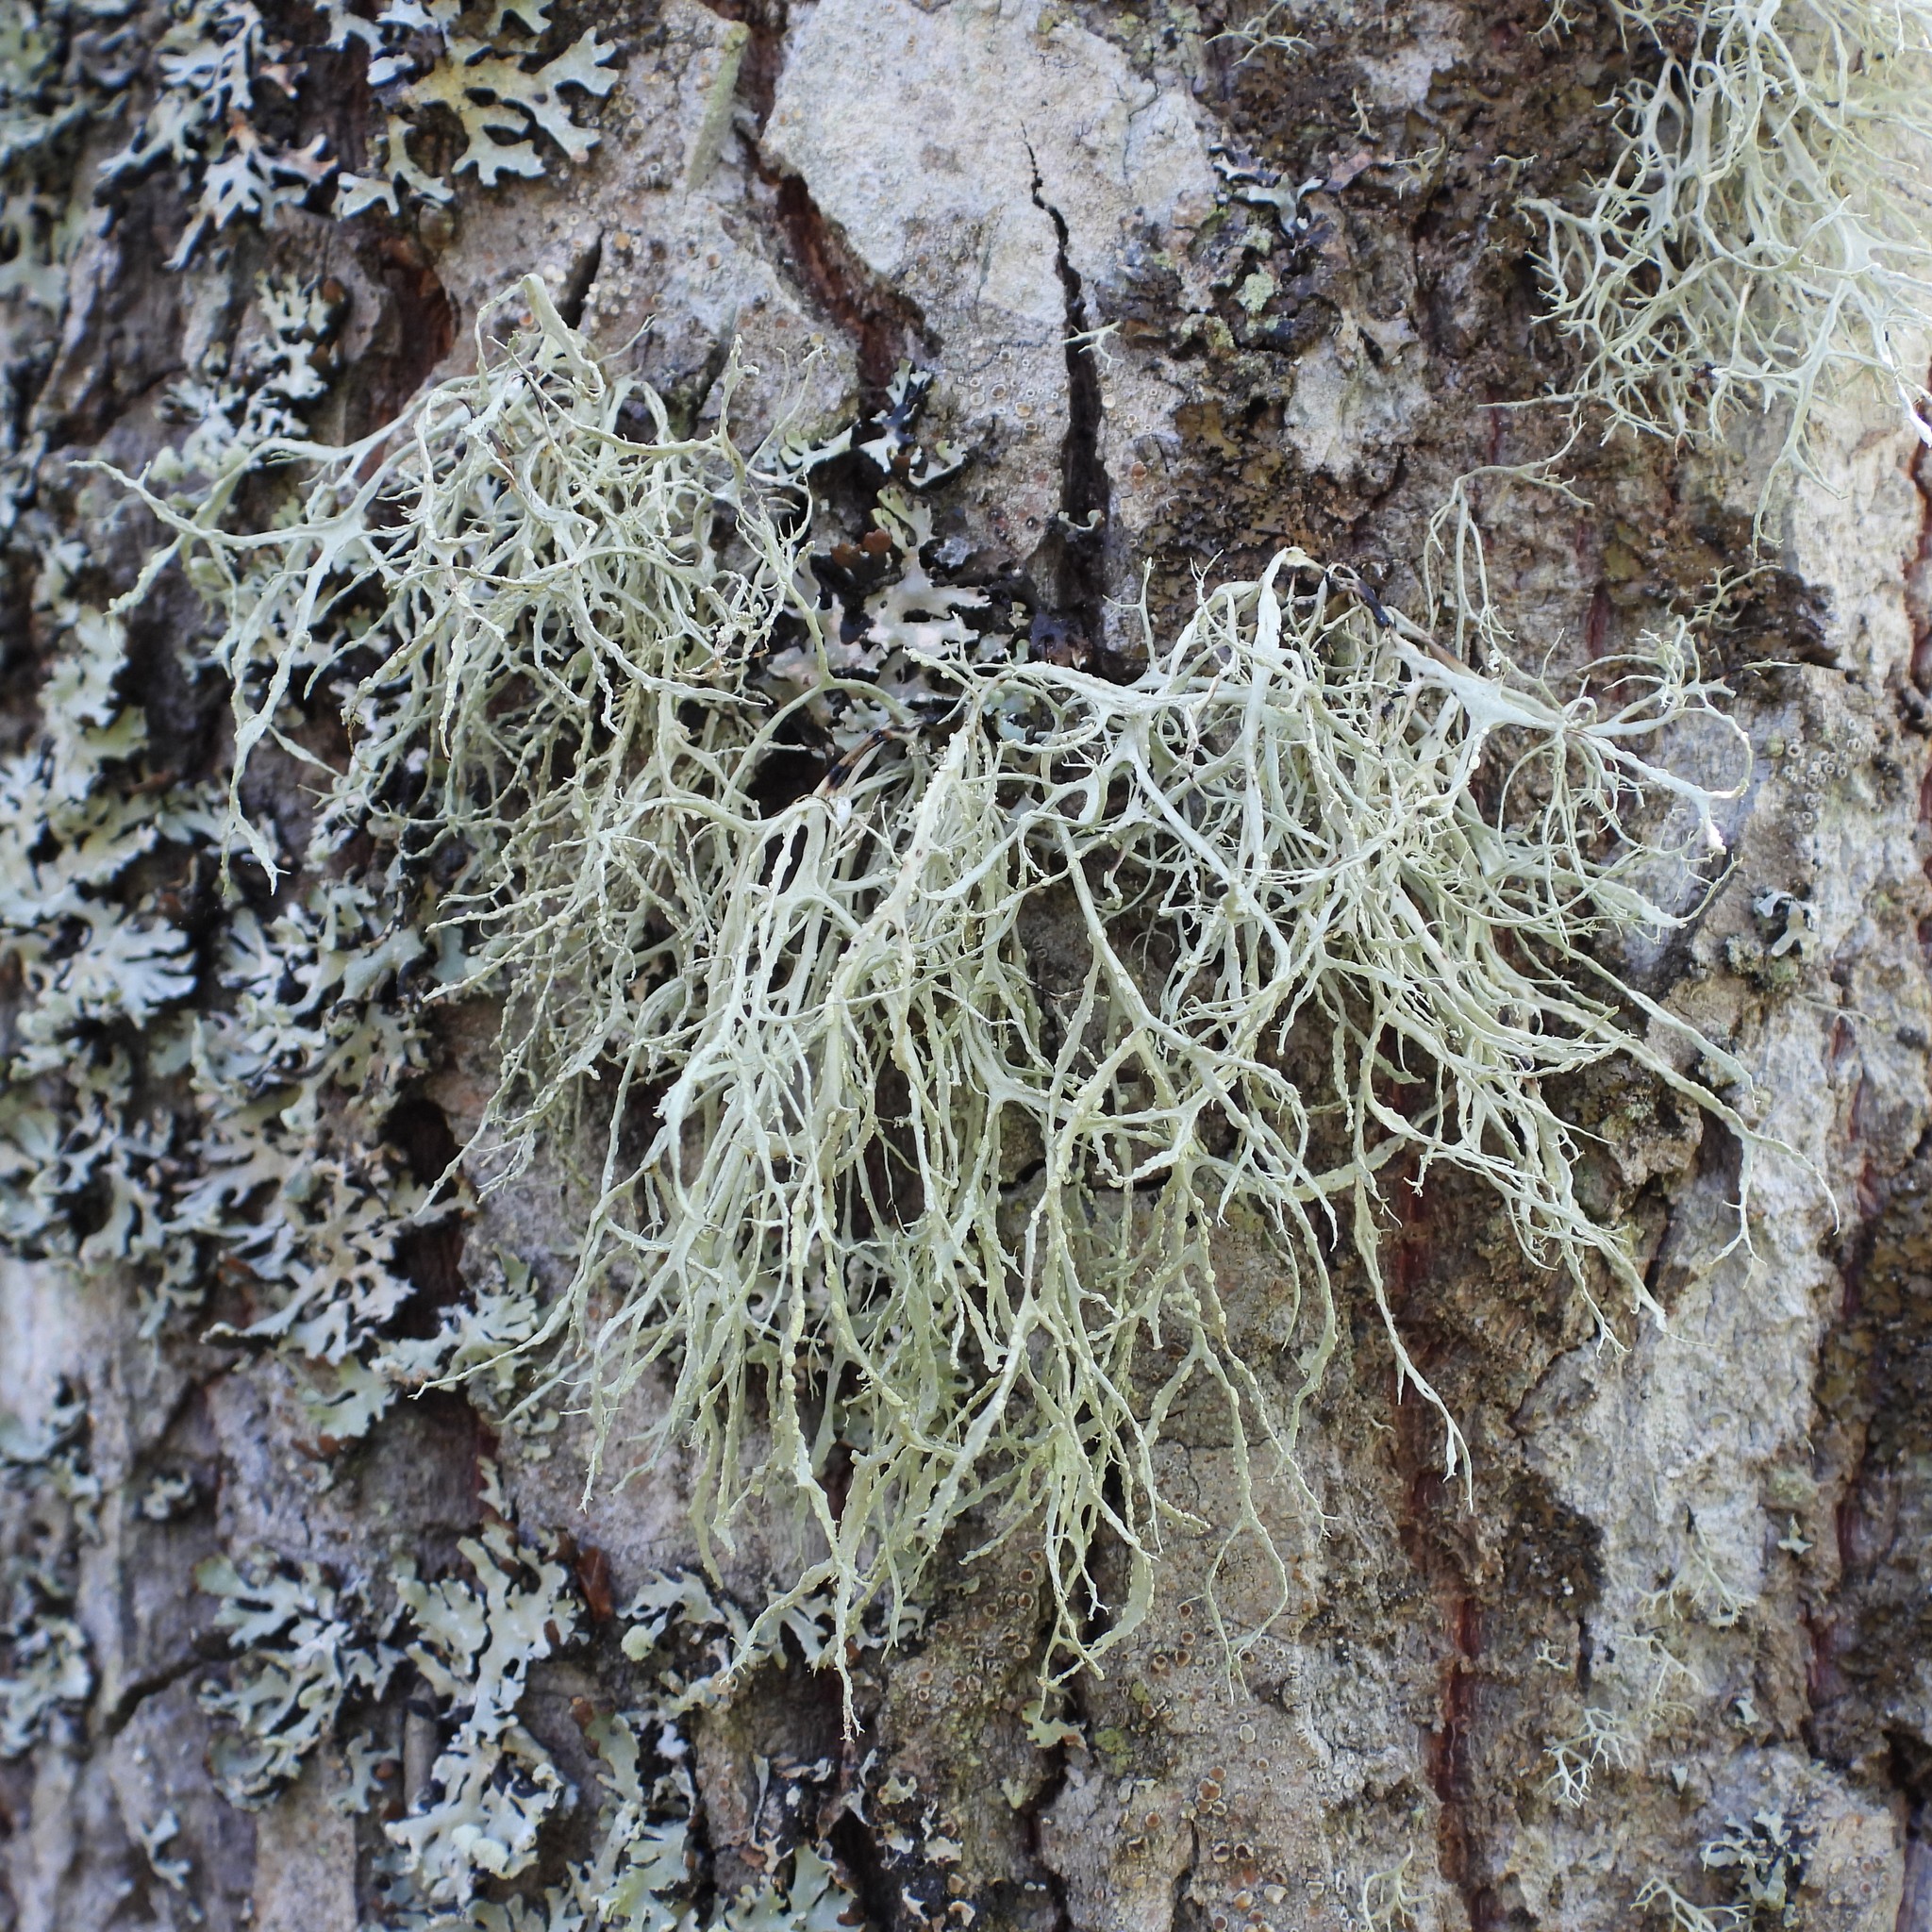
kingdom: Fungi
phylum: Ascomycota
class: Lecanoromycetes
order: Lecanorales
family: Ramalinaceae
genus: Ramalina
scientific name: Ramalina farinacea
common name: Farinose cartilage lichen
